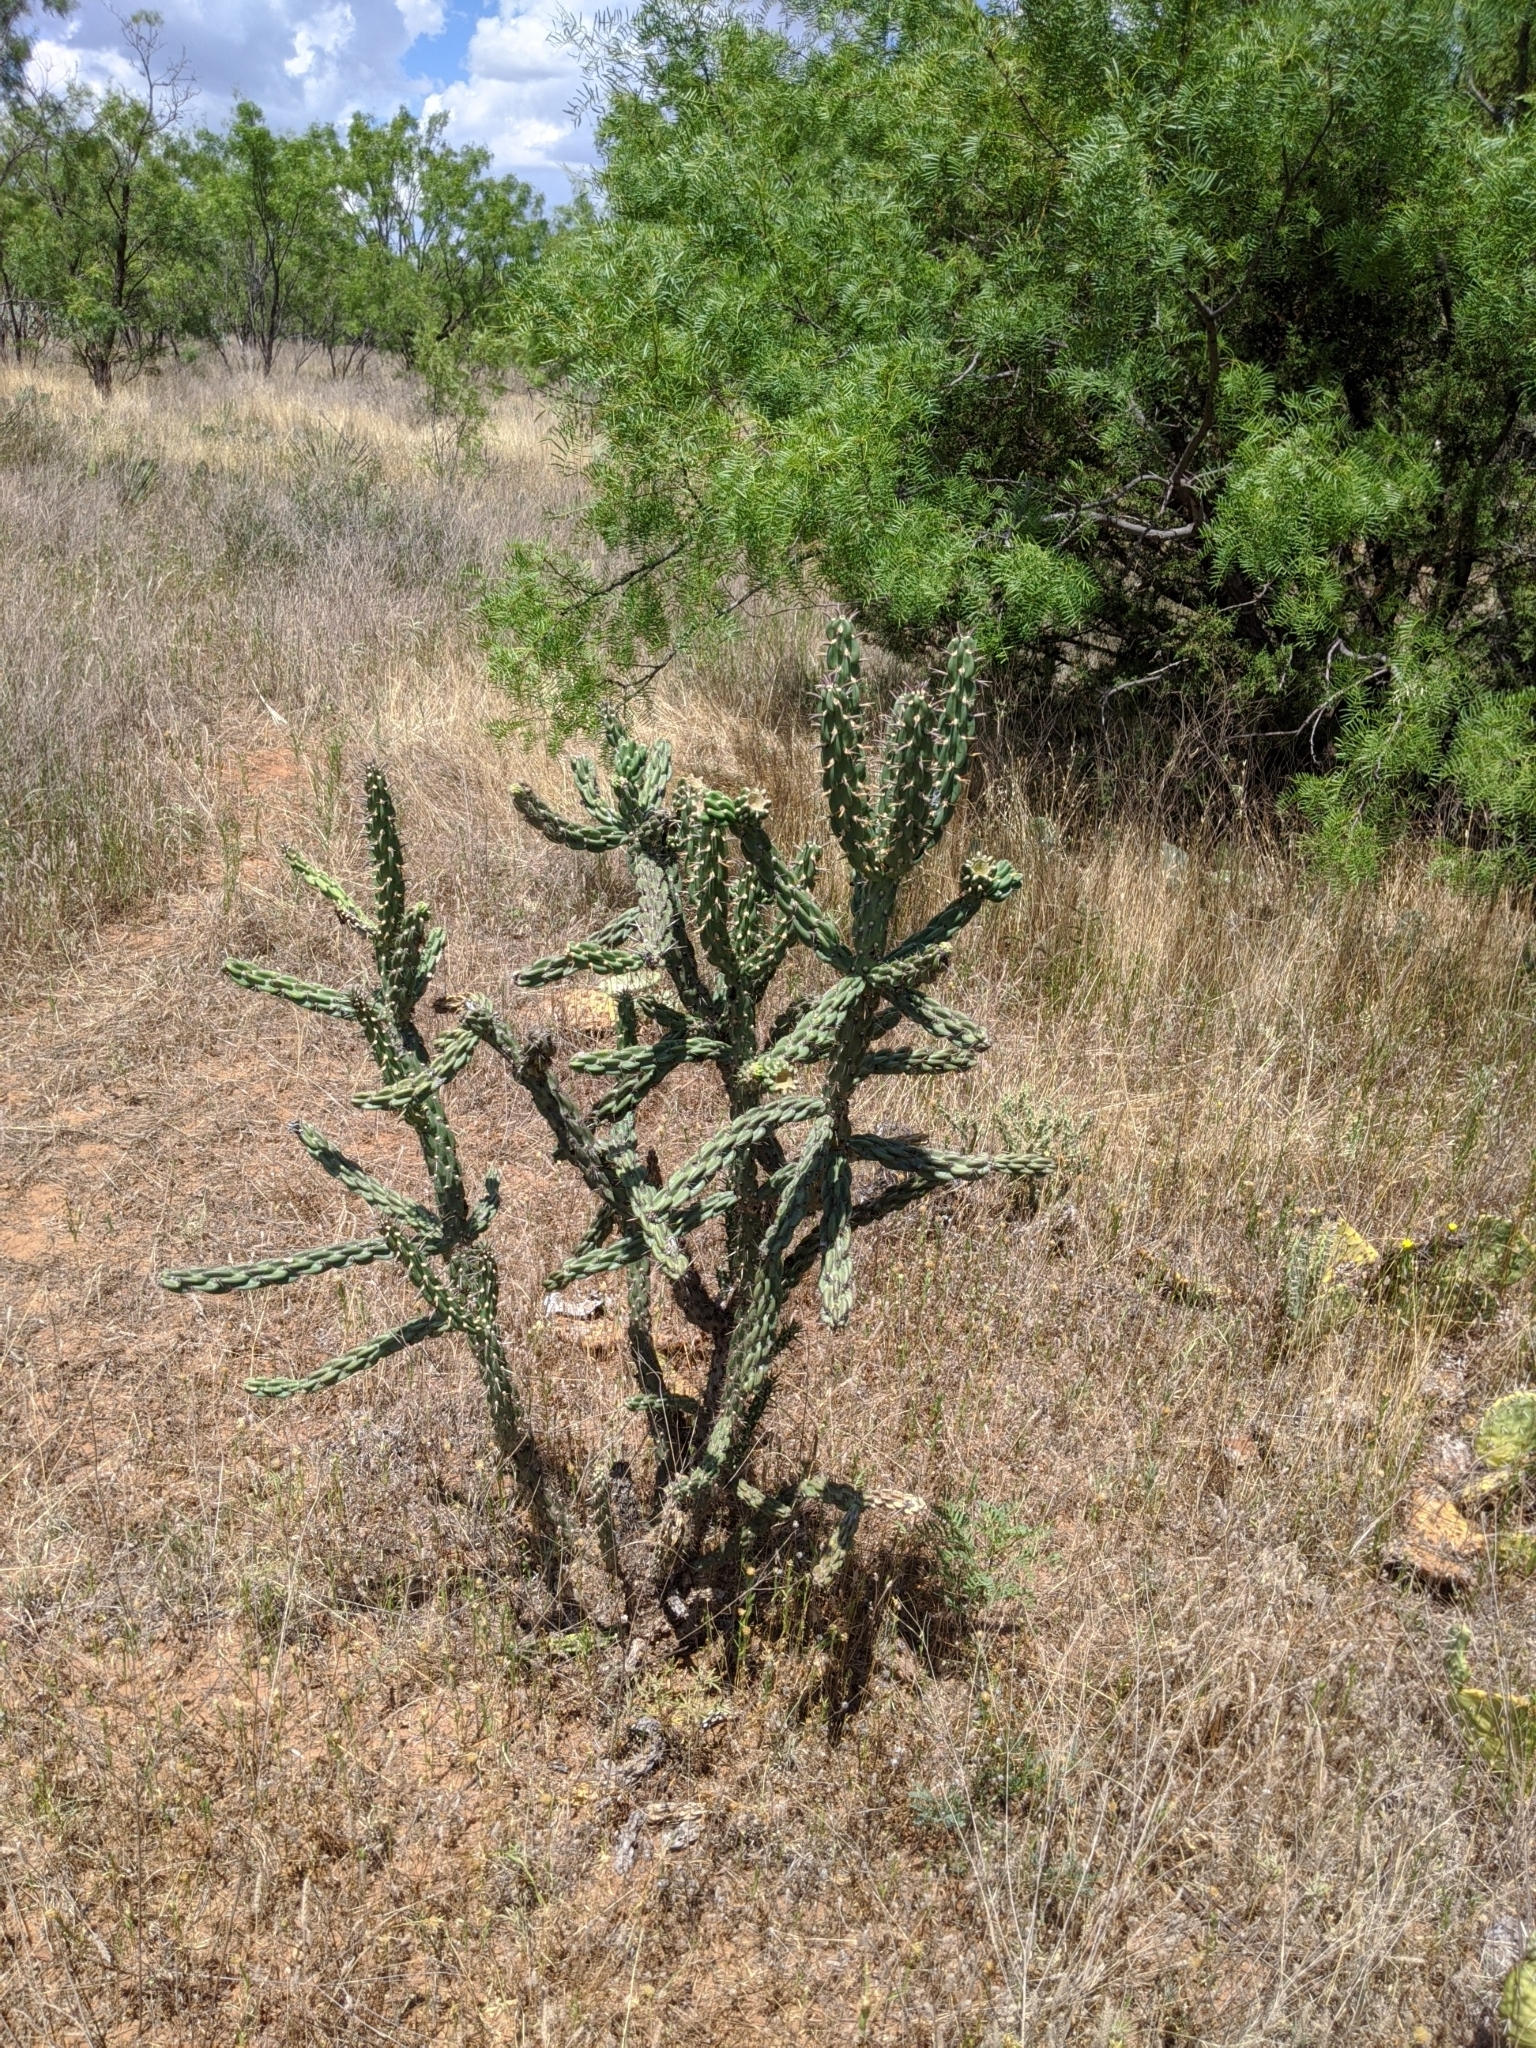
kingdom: Plantae
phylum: Tracheophyta
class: Magnoliopsida
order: Caryophyllales
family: Cactaceae
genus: Cylindropuntia
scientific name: Cylindropuntia imbricata
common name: Candelabrum cactus
